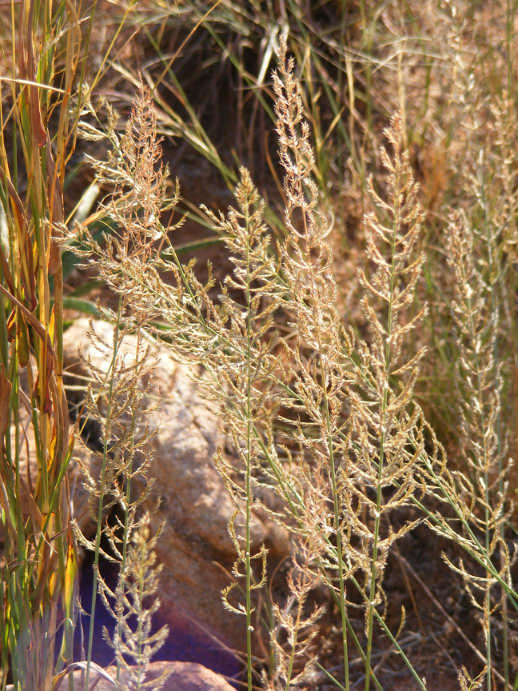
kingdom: Plantae
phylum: Tracheophyta
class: Liliopsida
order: Poales
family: Poaceae
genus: Pogonarthria
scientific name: Pogonarthria squarrosa
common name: Grass
